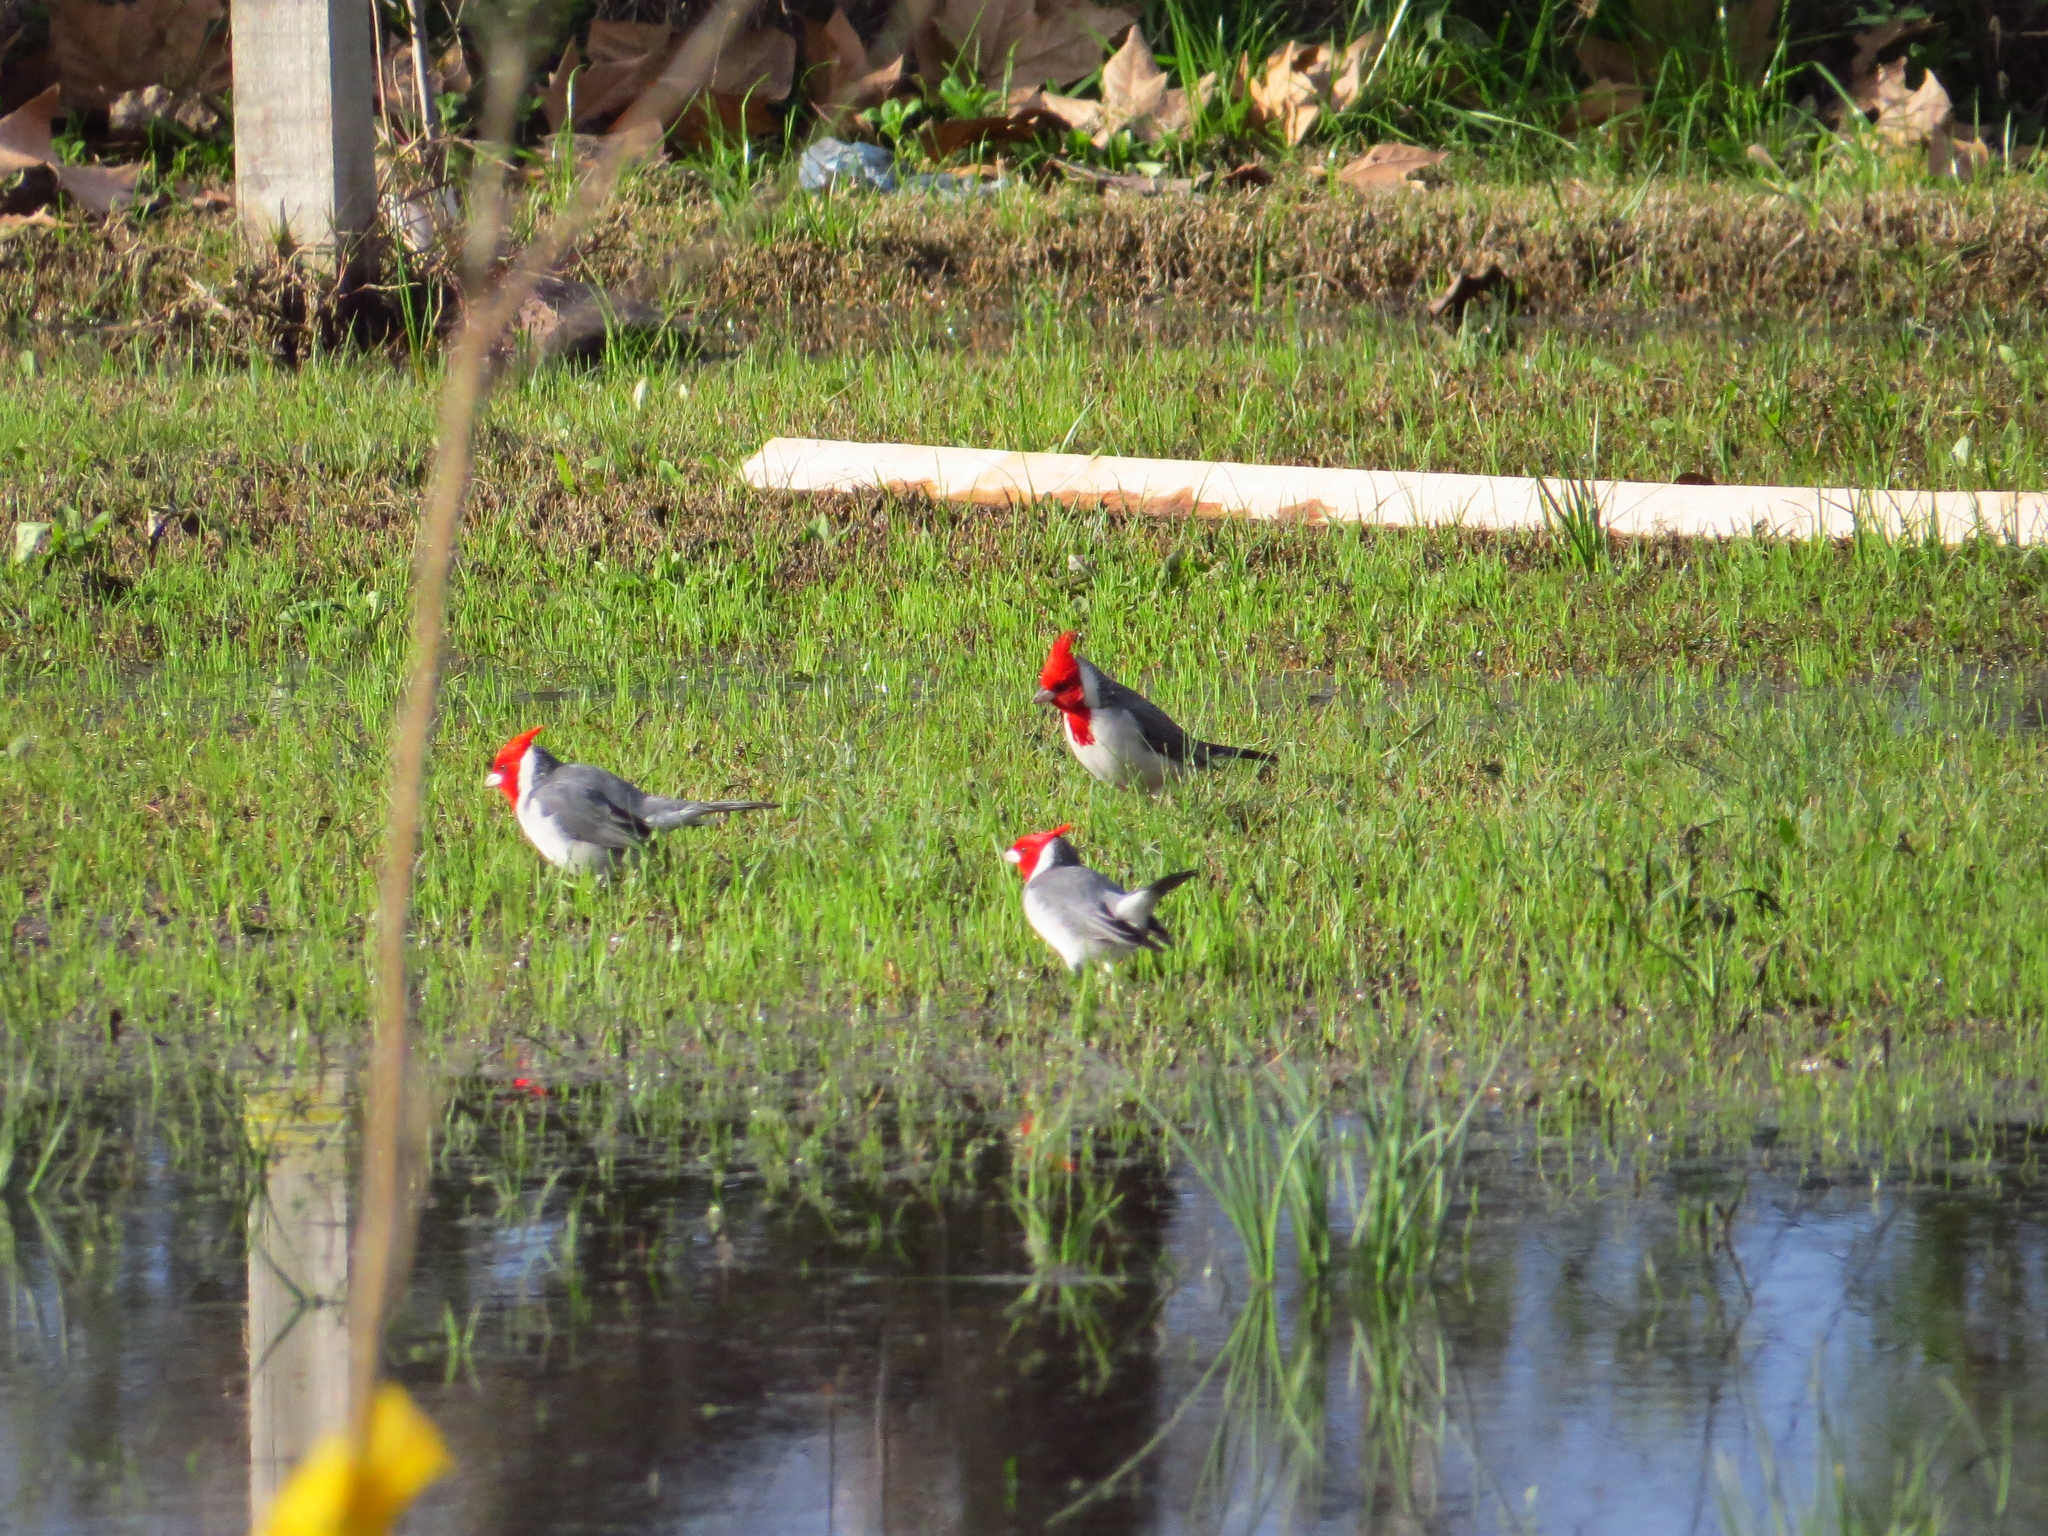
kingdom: Animalia
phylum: Chordata
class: Aves
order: Passeriformes
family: Thraupidae
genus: Paroaria
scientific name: Paroaria coronata
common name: Red-crested cardinal
